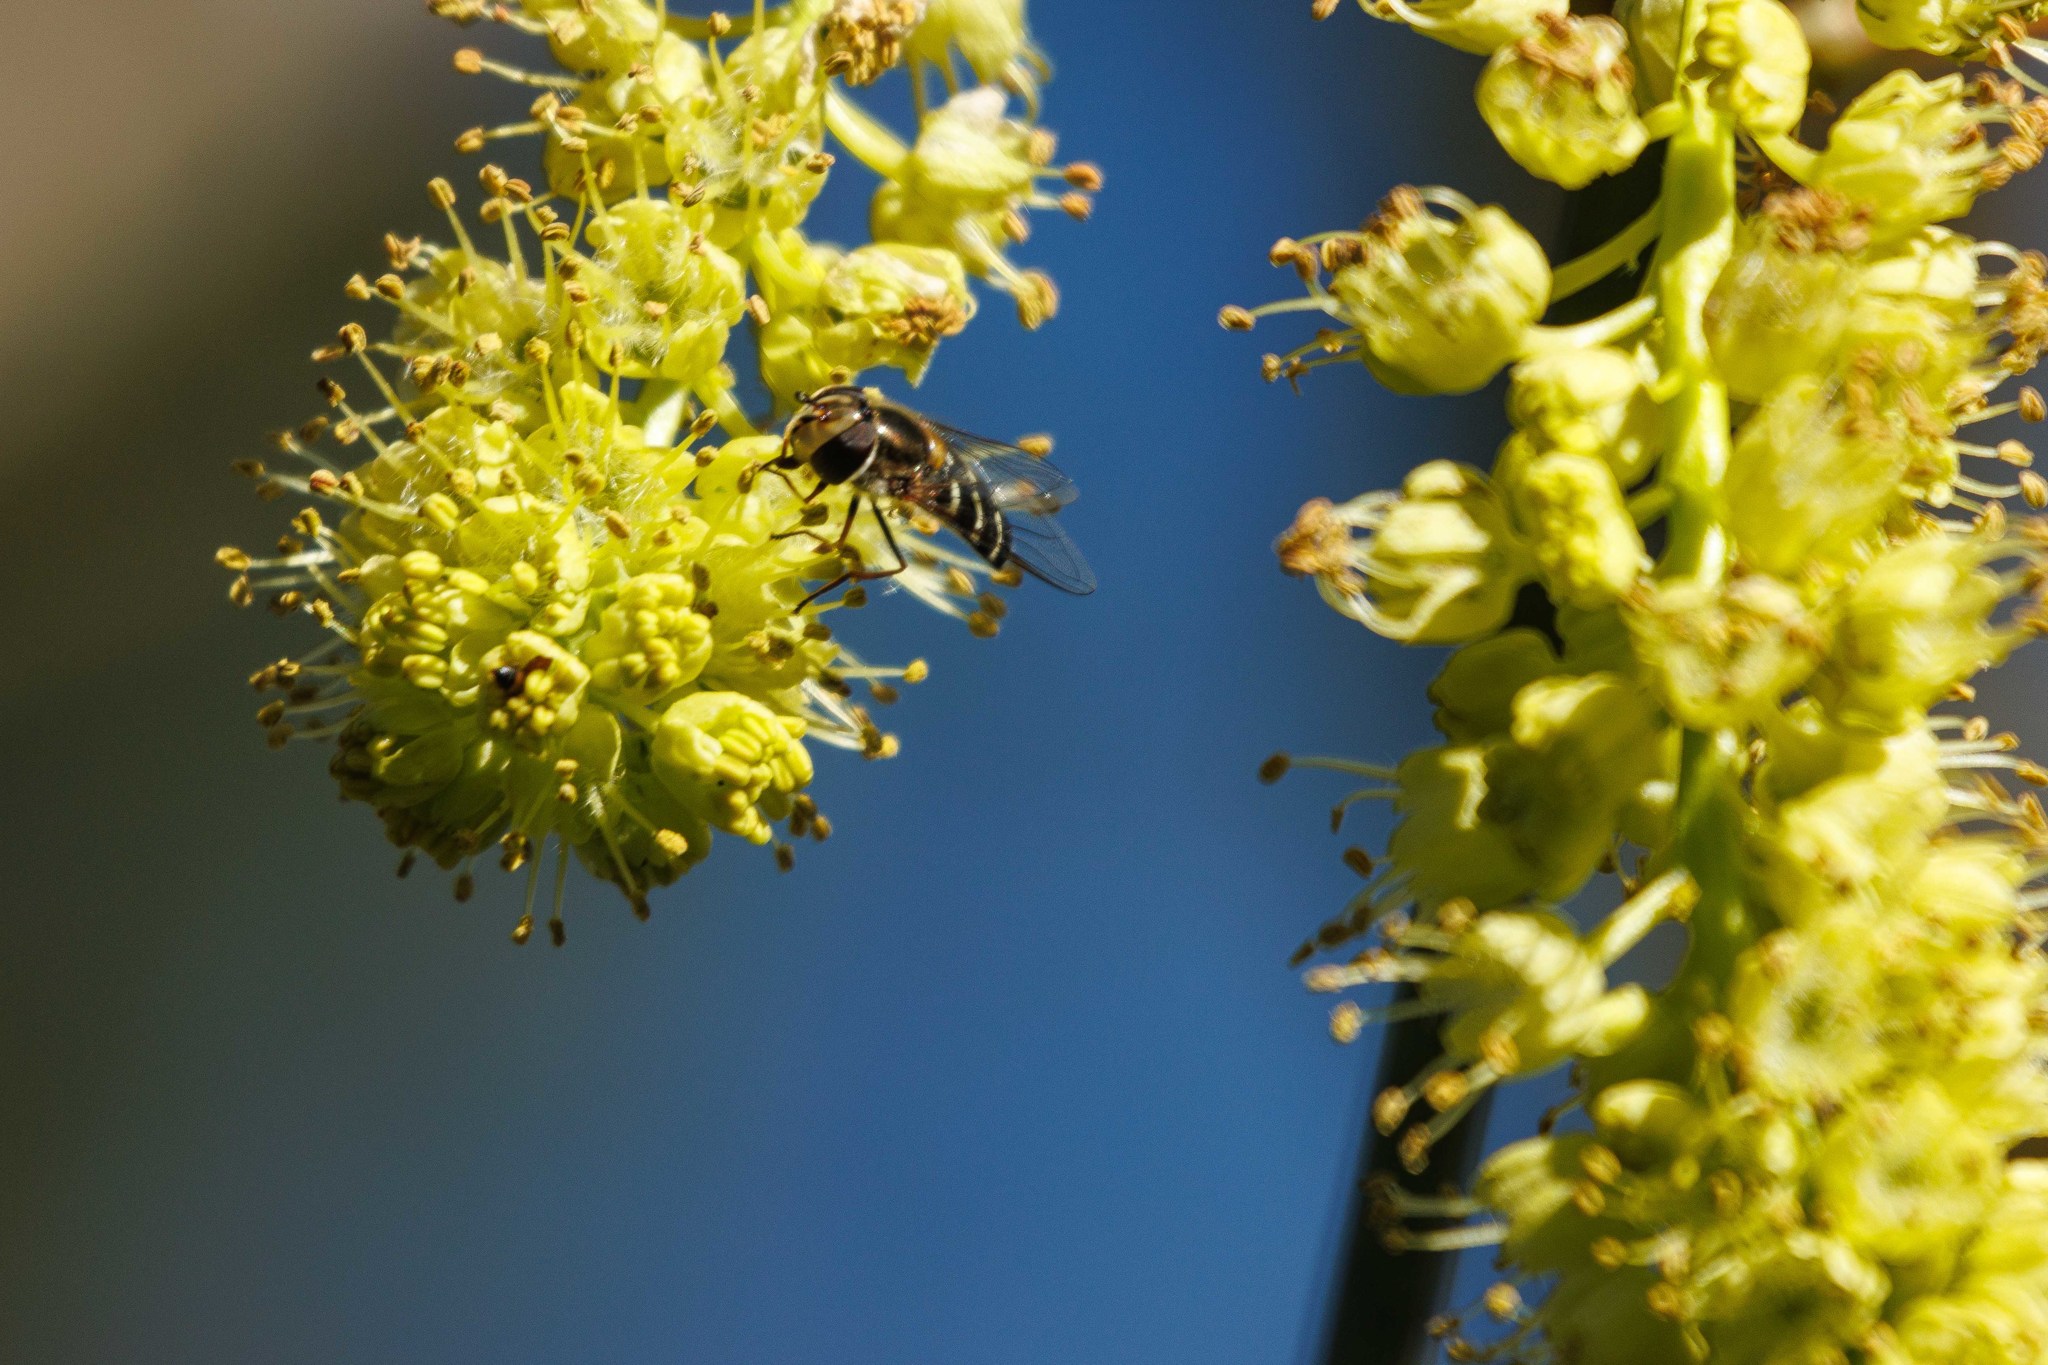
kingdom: Animalia
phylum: Arthropoda
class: Insecta
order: Diptera
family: Syrphidae
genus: Scaeva
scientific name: Scaeva affinis
